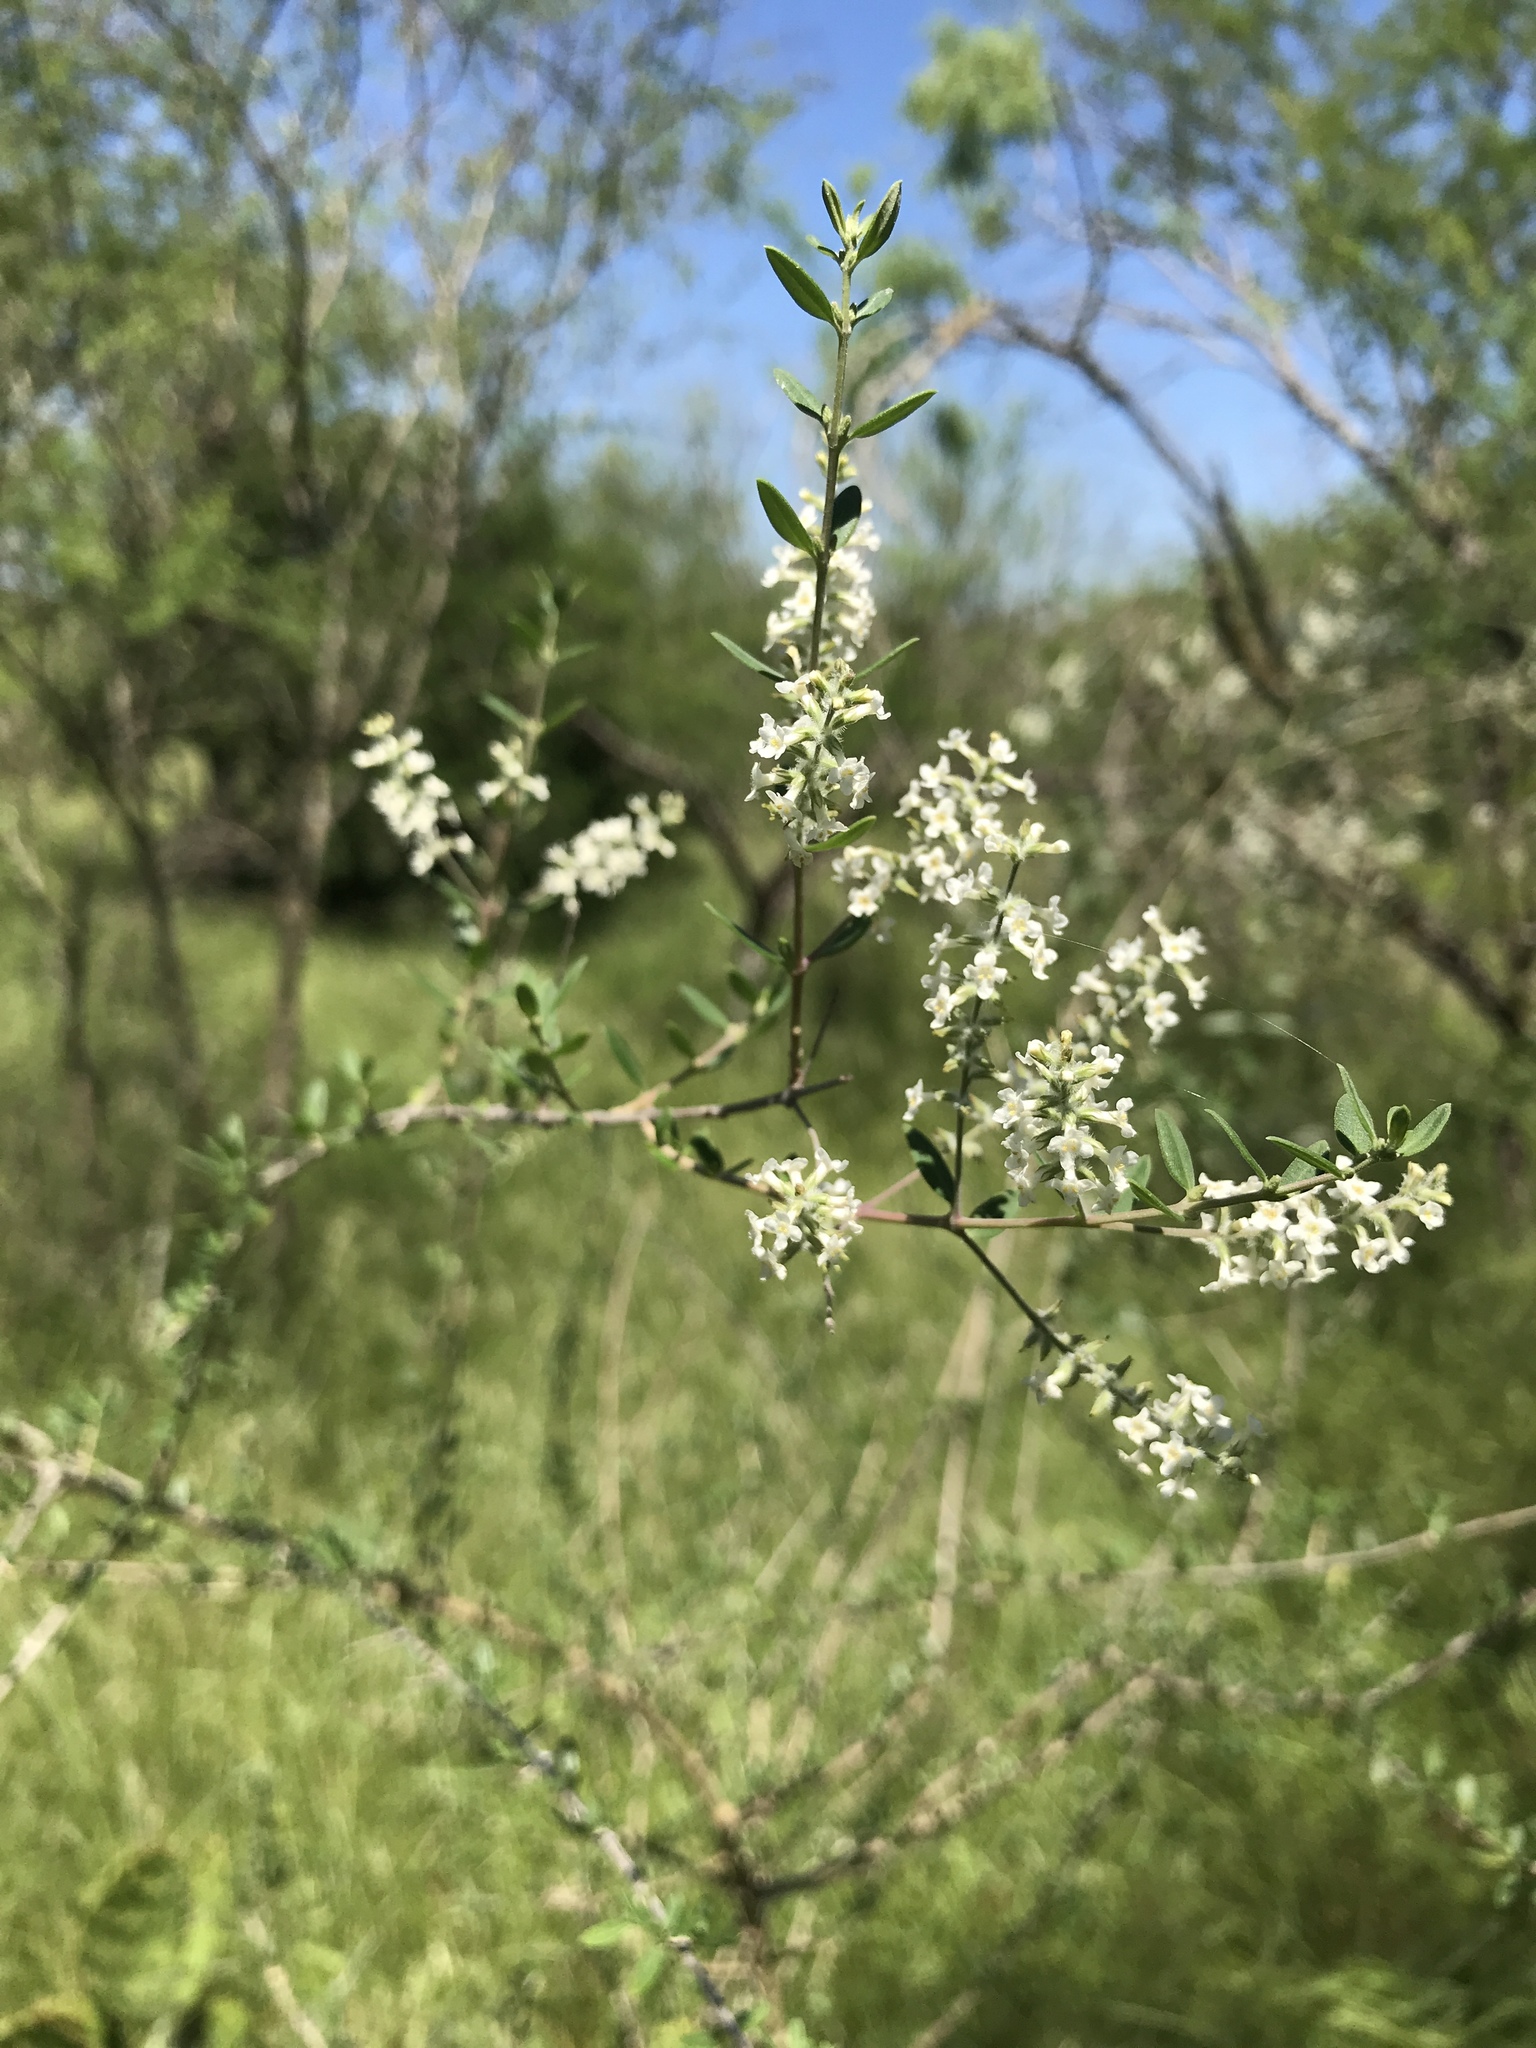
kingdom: Plantae
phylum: Tracheophyta
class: Magnoliopsida
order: Lamiales
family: Verbenaceae
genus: Aloysia
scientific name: Aloysia gratissima
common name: Common bee-brush
